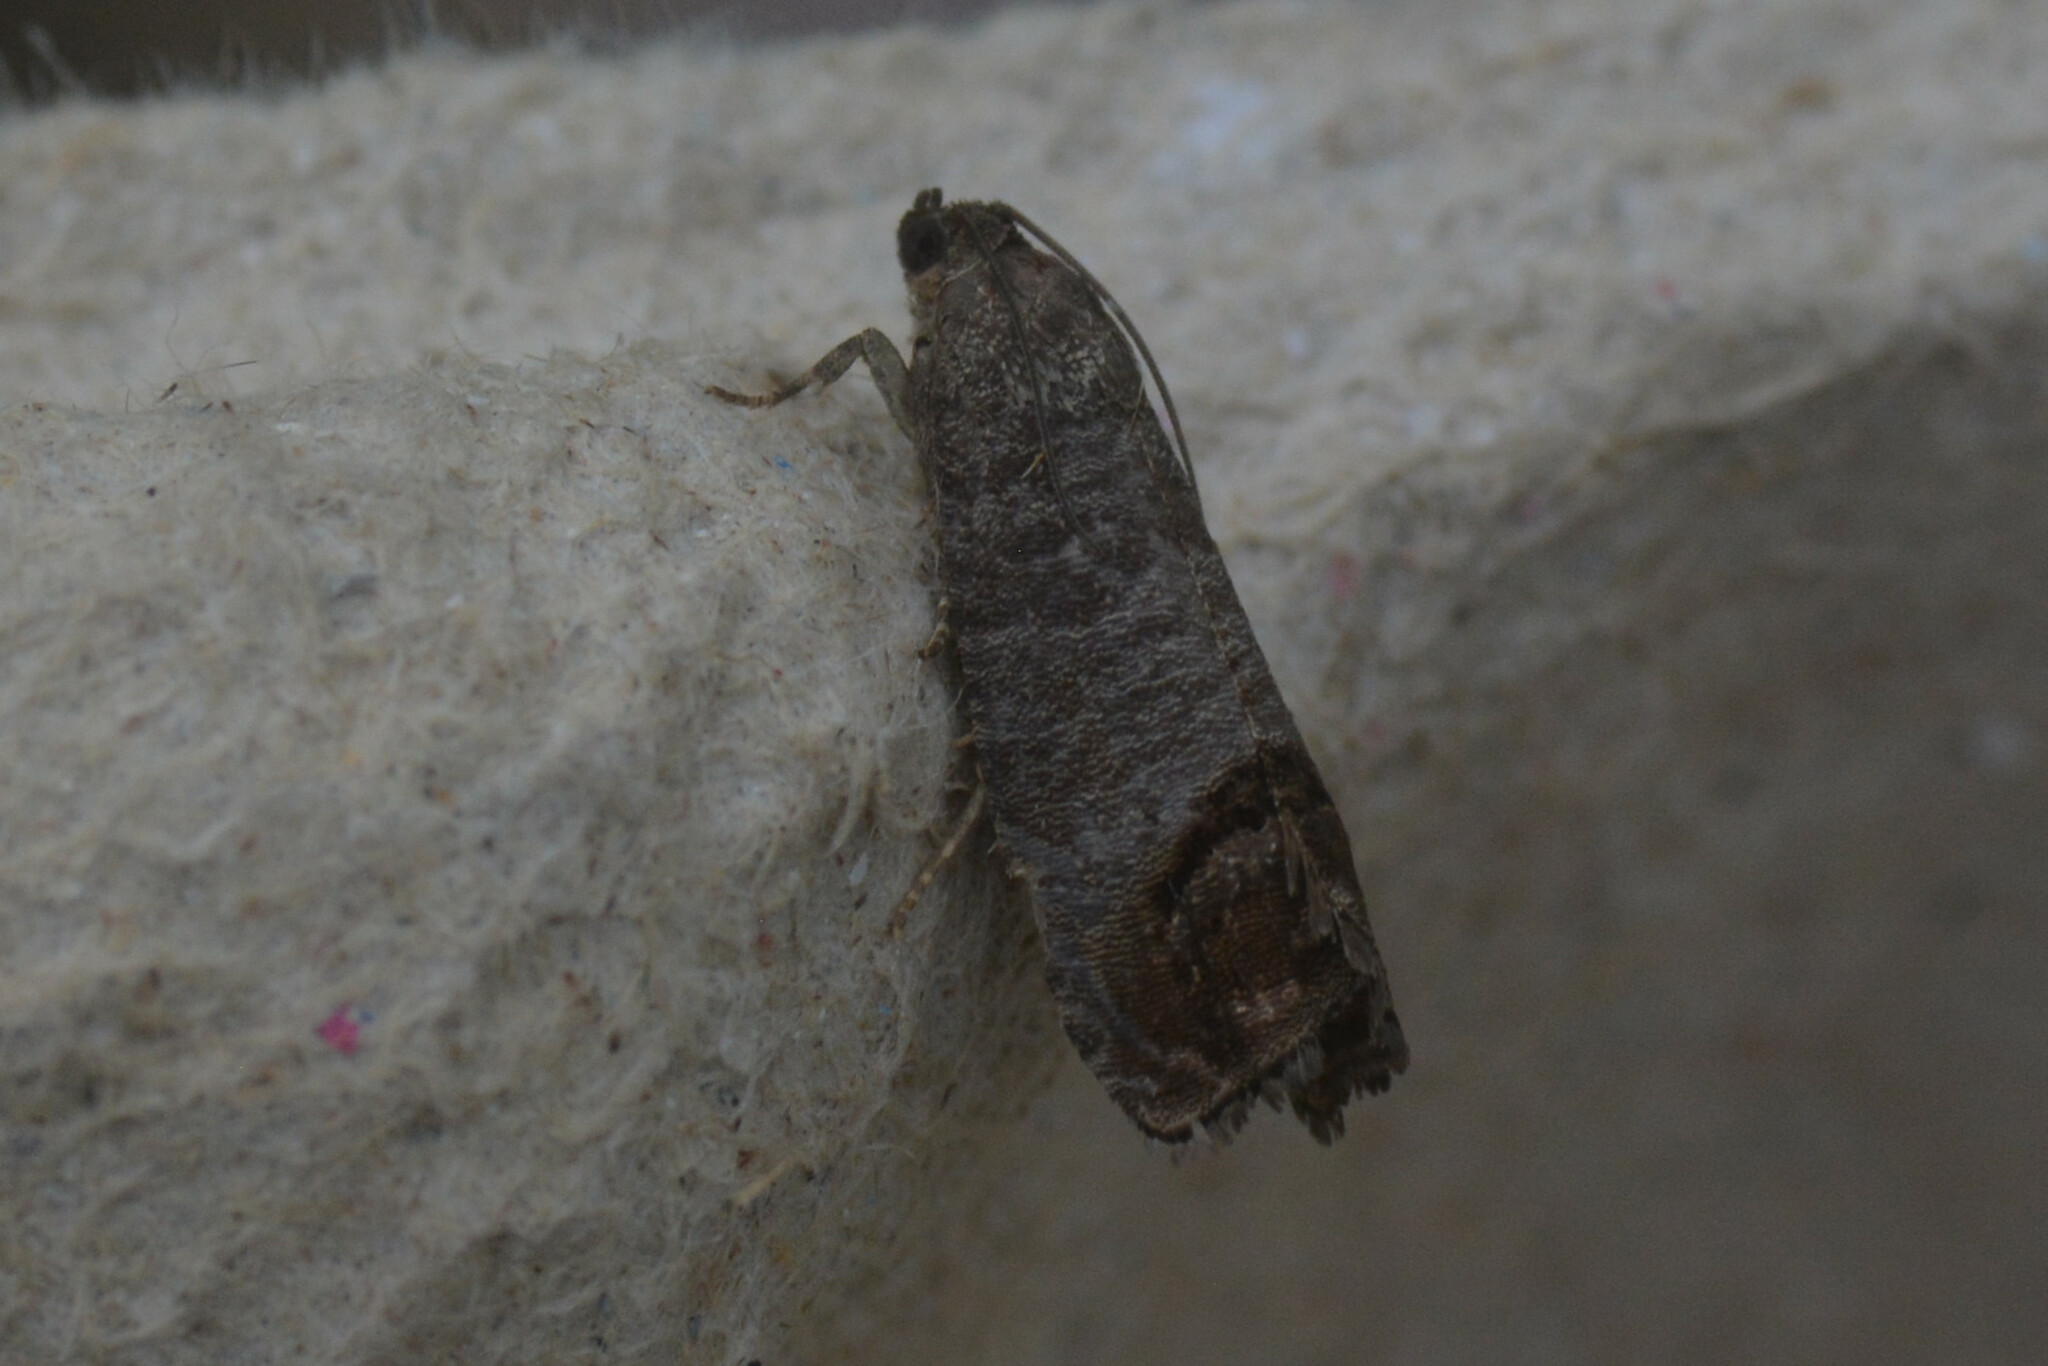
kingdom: Animalia
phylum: Arthropoda
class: Insecta
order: Lepidoptera
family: Tortricidae
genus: Cydia
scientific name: Cydia pomonella
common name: Codling moth
